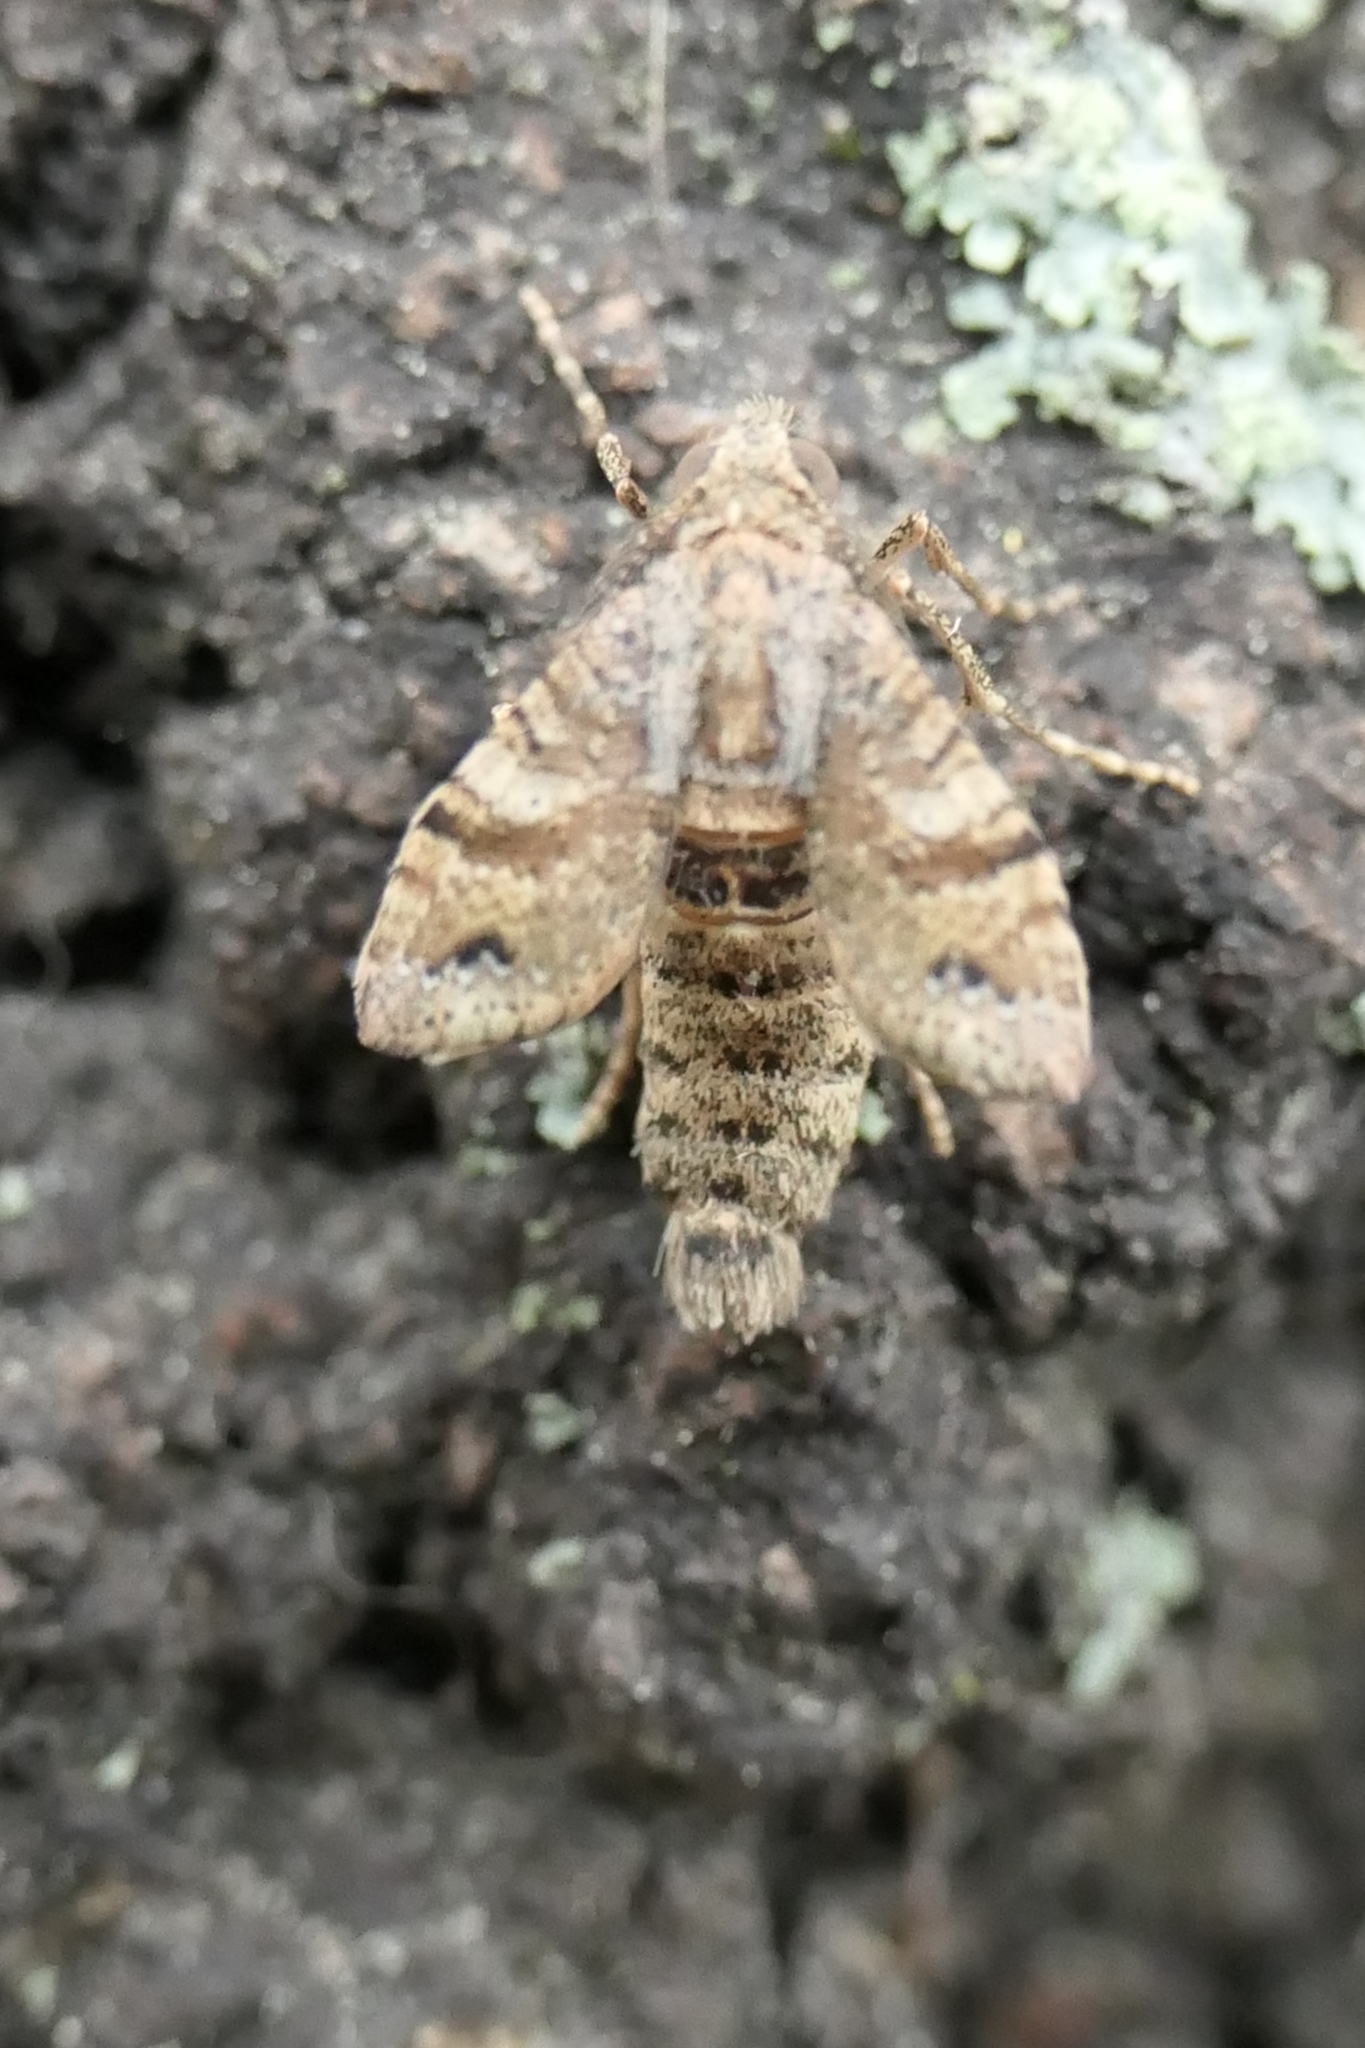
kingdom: Animalia
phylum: Arthropoda
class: Insecta
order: Lepidoptera
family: Geometridae
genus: Homodotis
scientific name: Homodotis megaspilata
